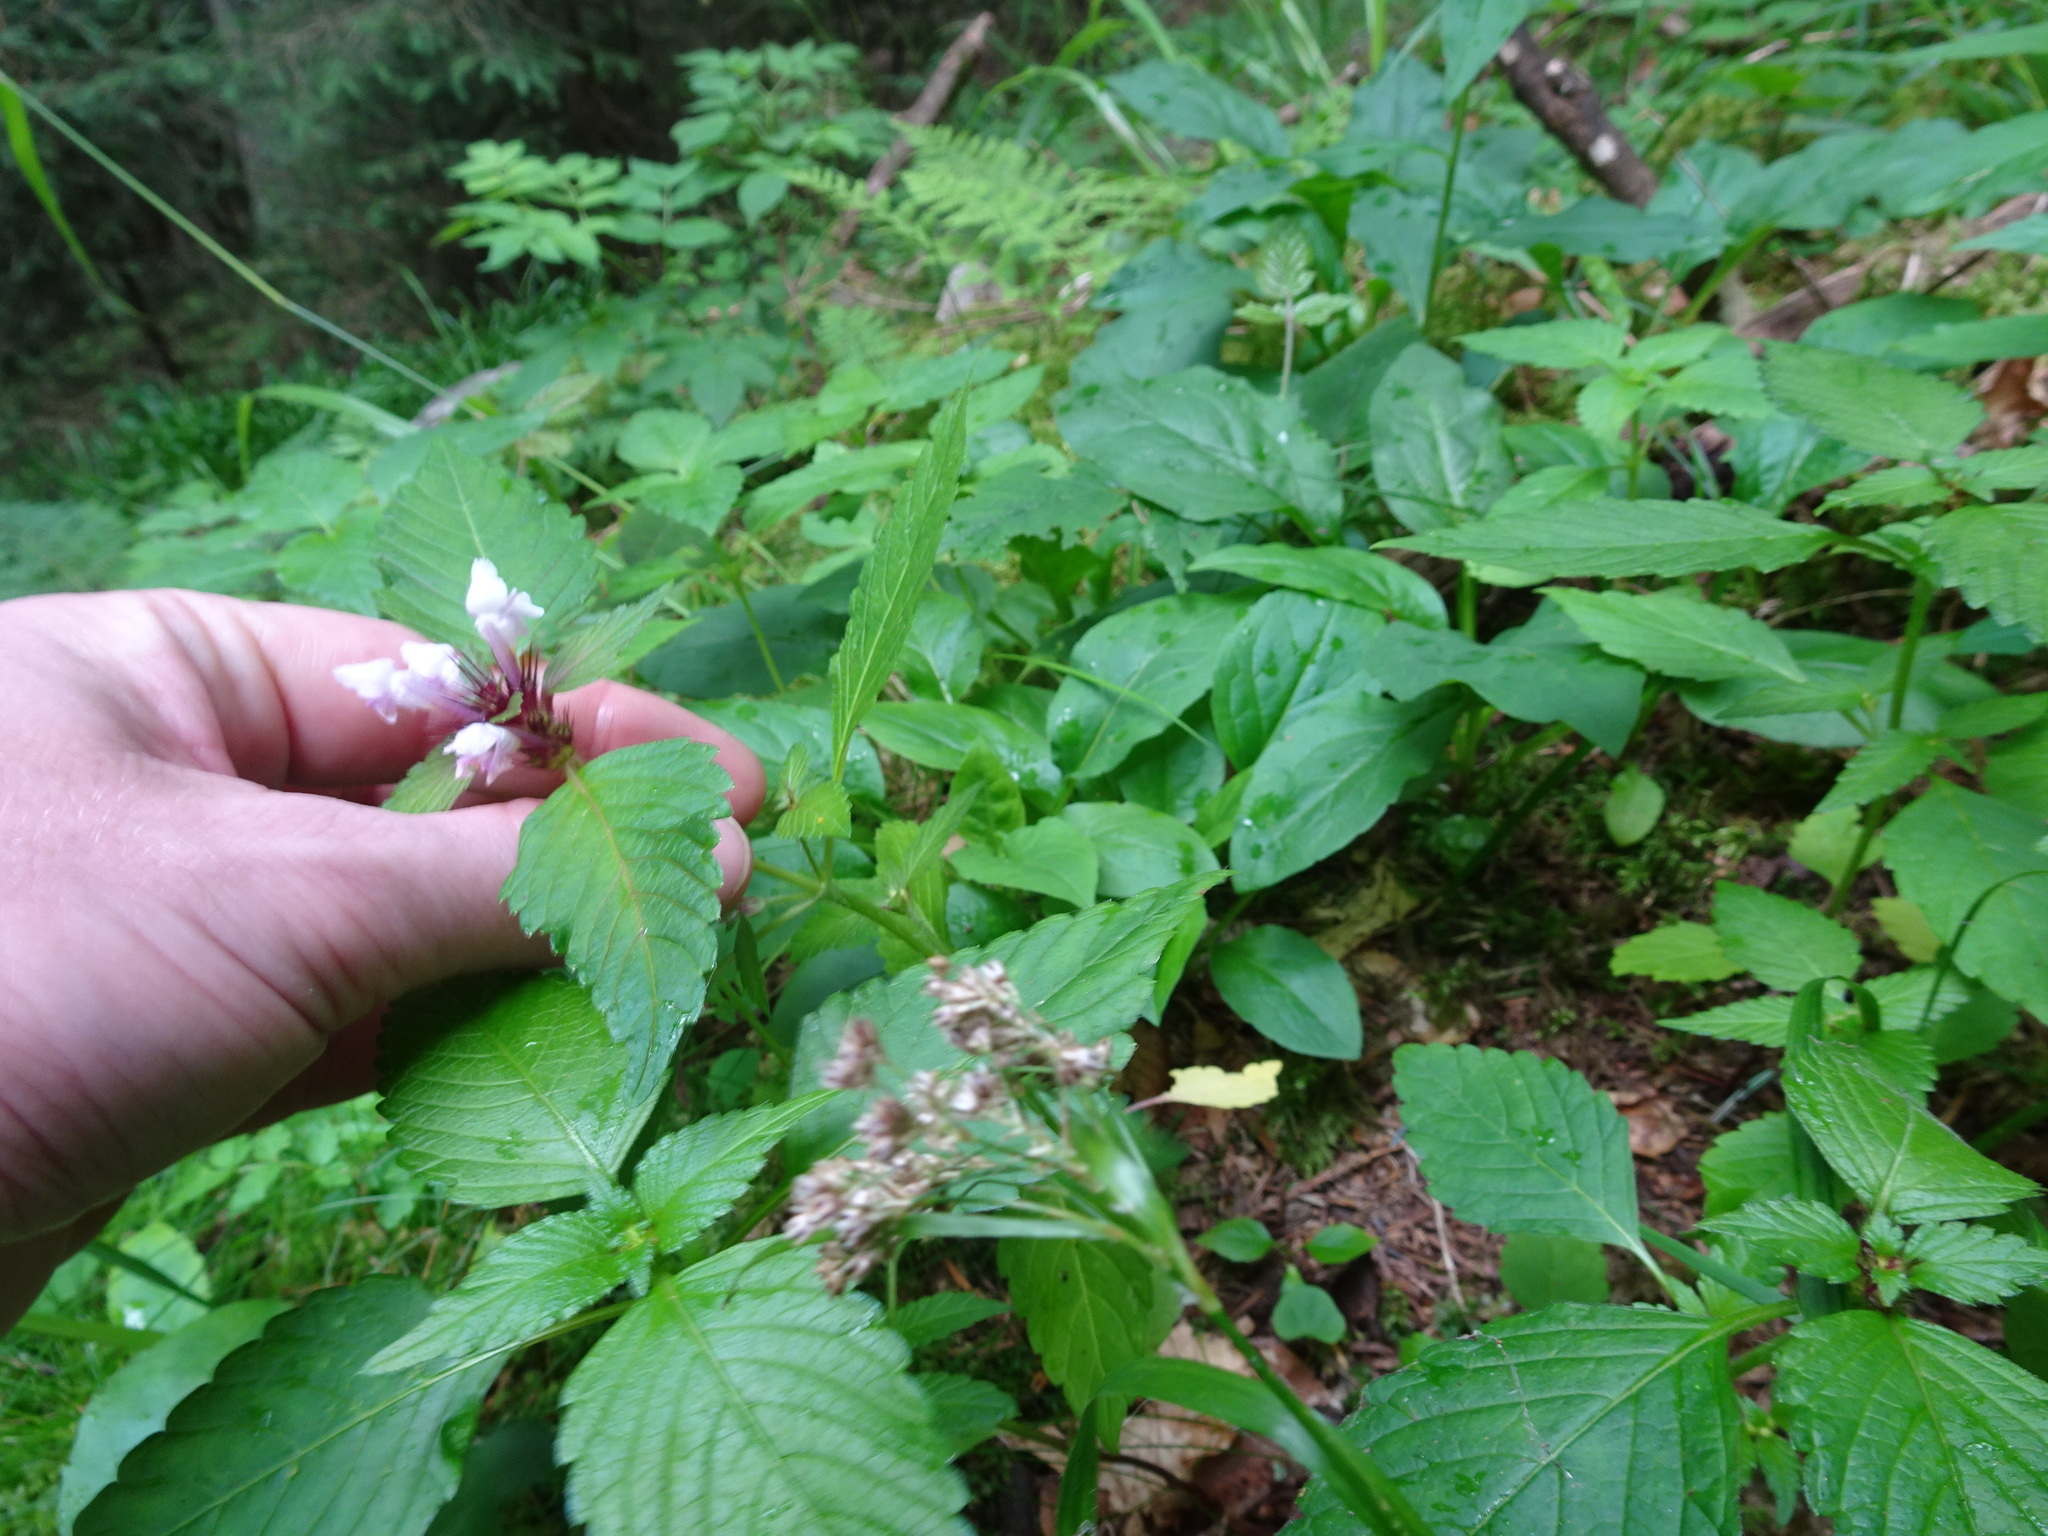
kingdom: Plantae
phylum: Tracheophyta
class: Magnoliopsida
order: Lamiales
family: Lamiaceae
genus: Galeopsis
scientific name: Galeopsis tetrahit
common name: Common hemp-nettle
